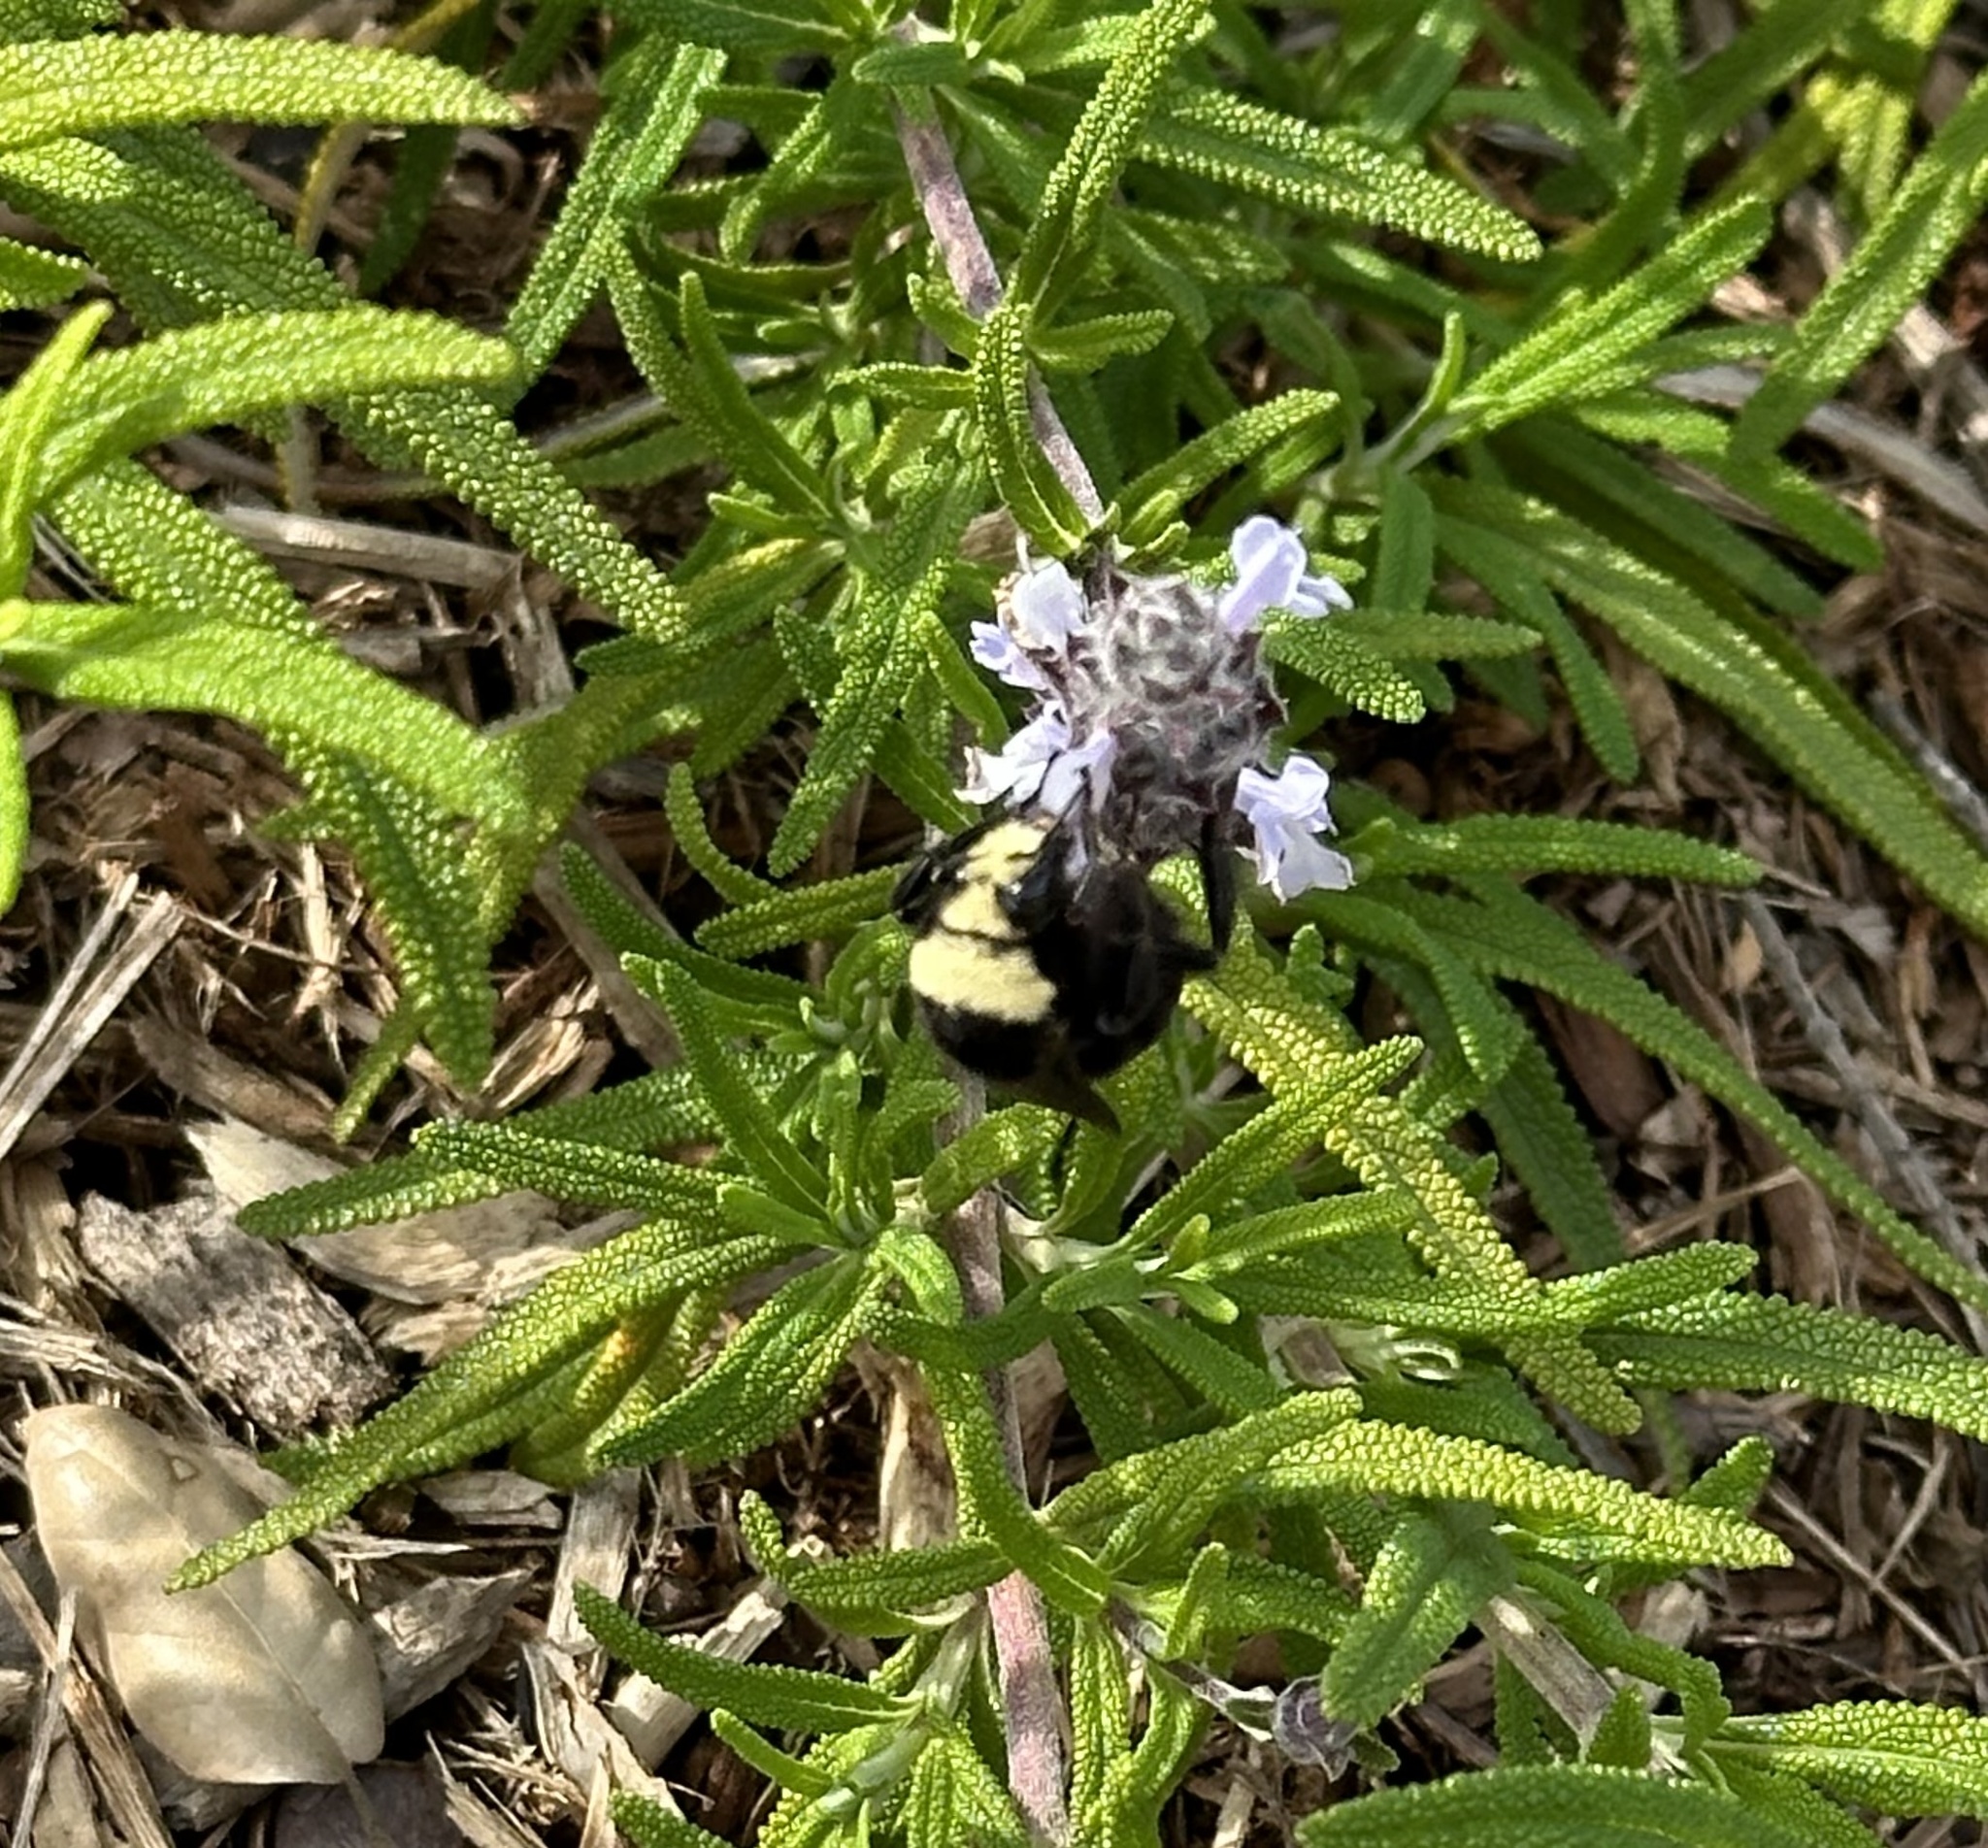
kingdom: Animalia
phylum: Arthropoda
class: Insecta
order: Hymenoptera
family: Apidae
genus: Bombus
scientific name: Bombus vosnesenskii
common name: Vosnesensky bumble bee
